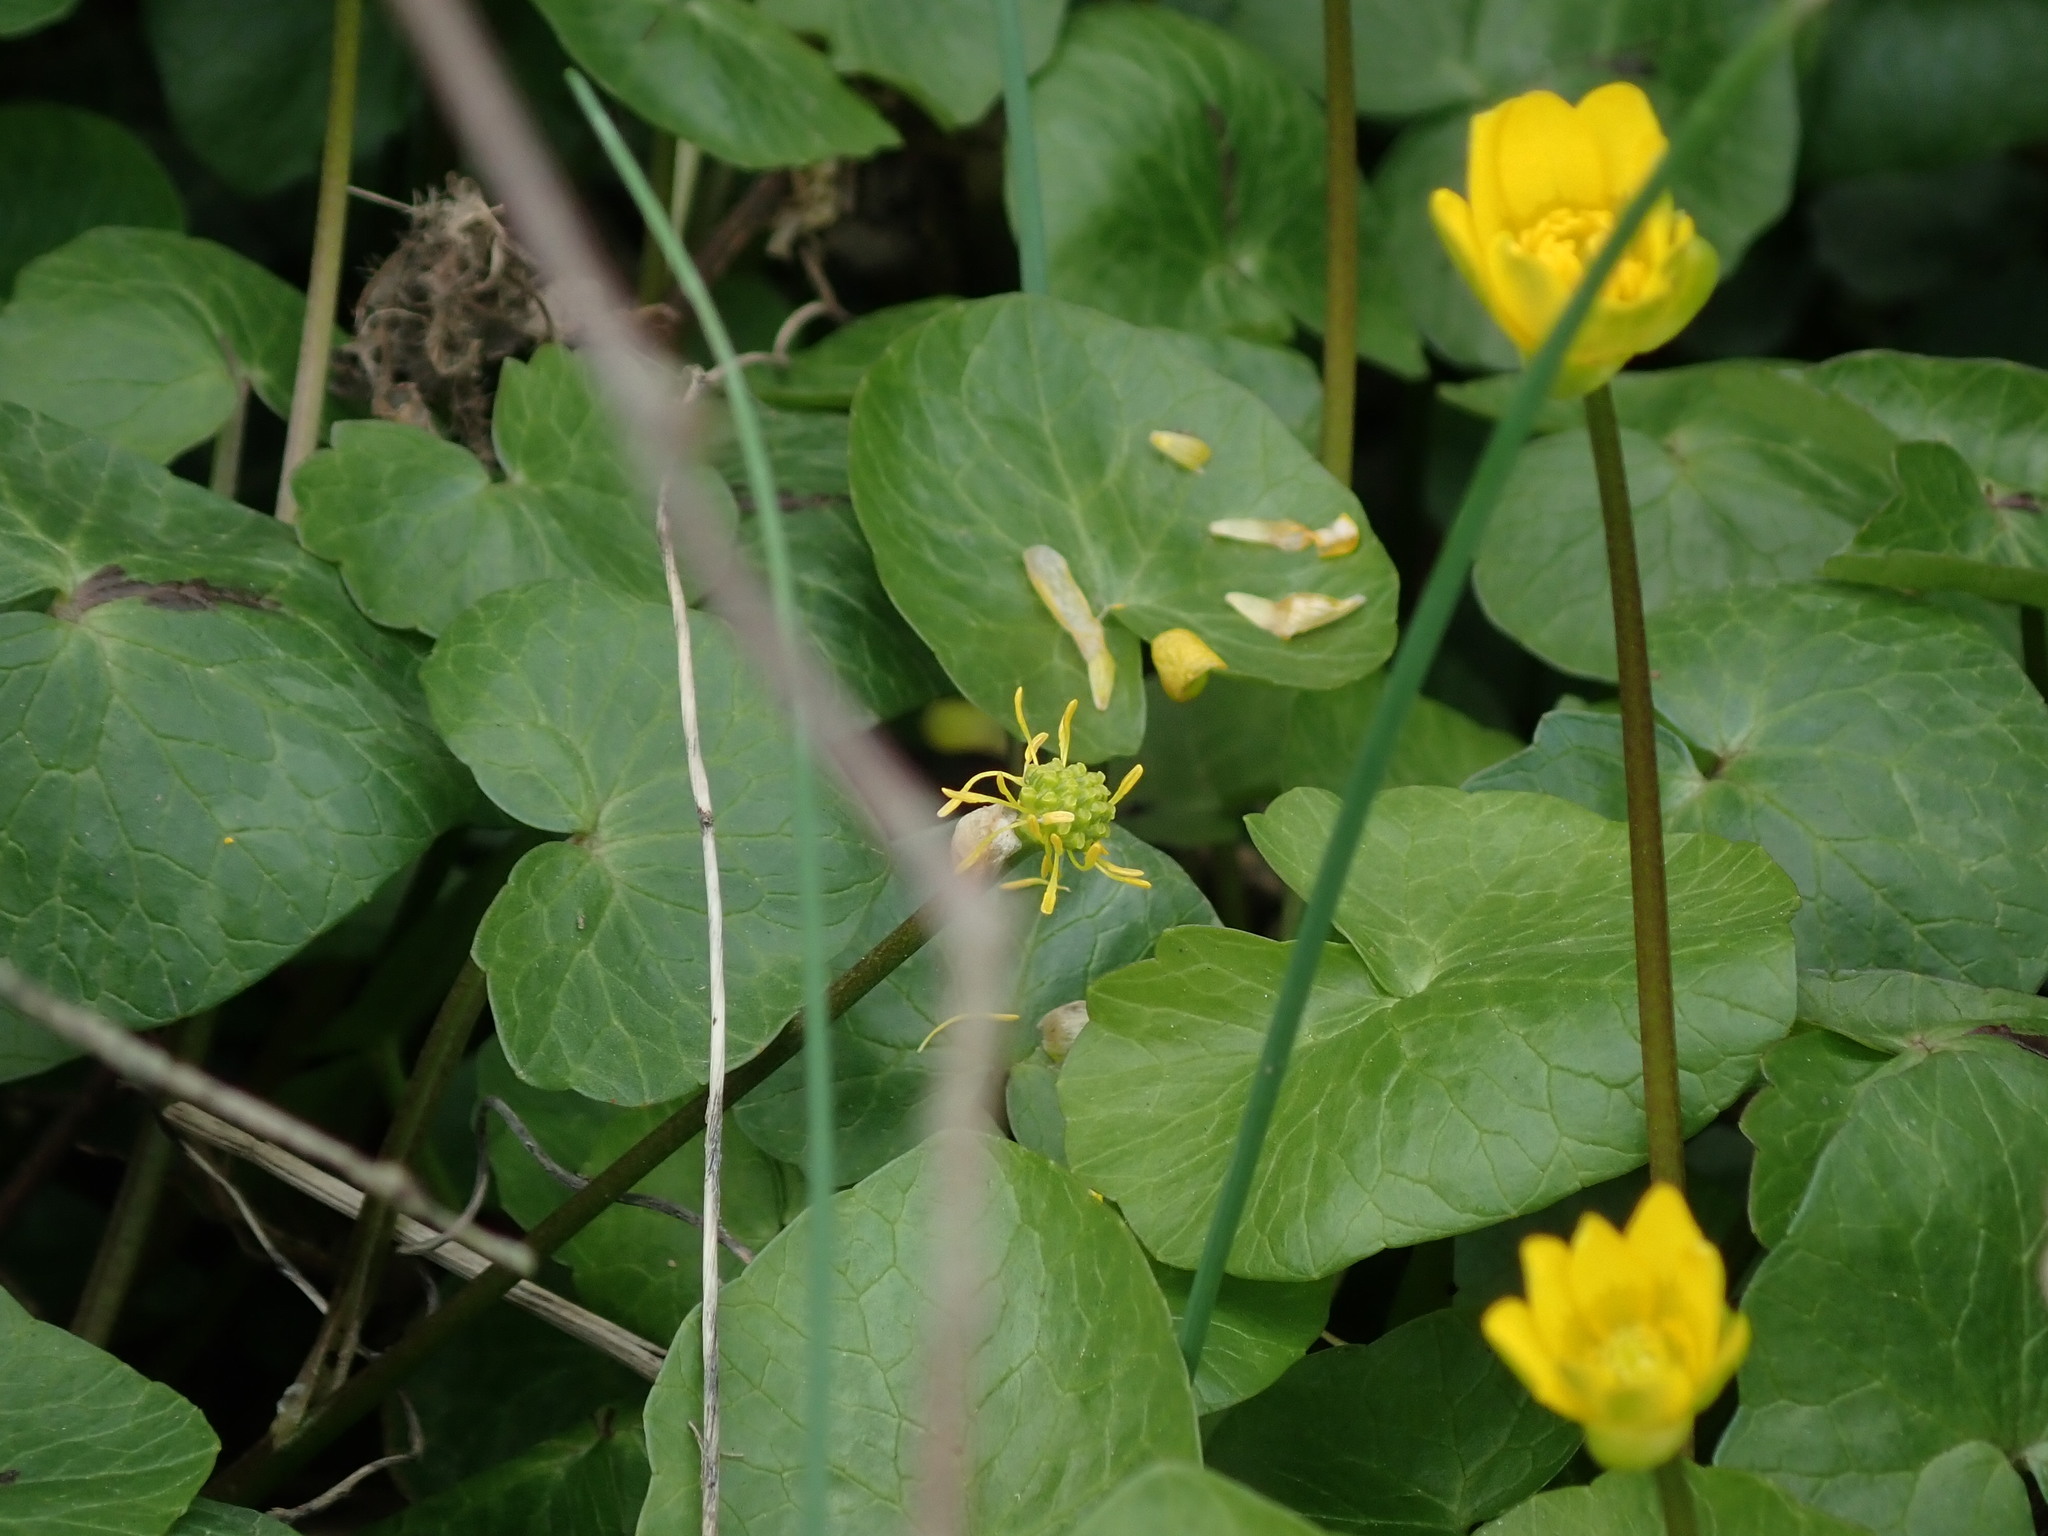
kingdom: Plantae
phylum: Tracheophyta
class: Magnoliopsida
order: Ranunculales
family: Ranunculaceae
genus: Ficaria
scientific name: Ficaria verna
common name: Lesser celandine
